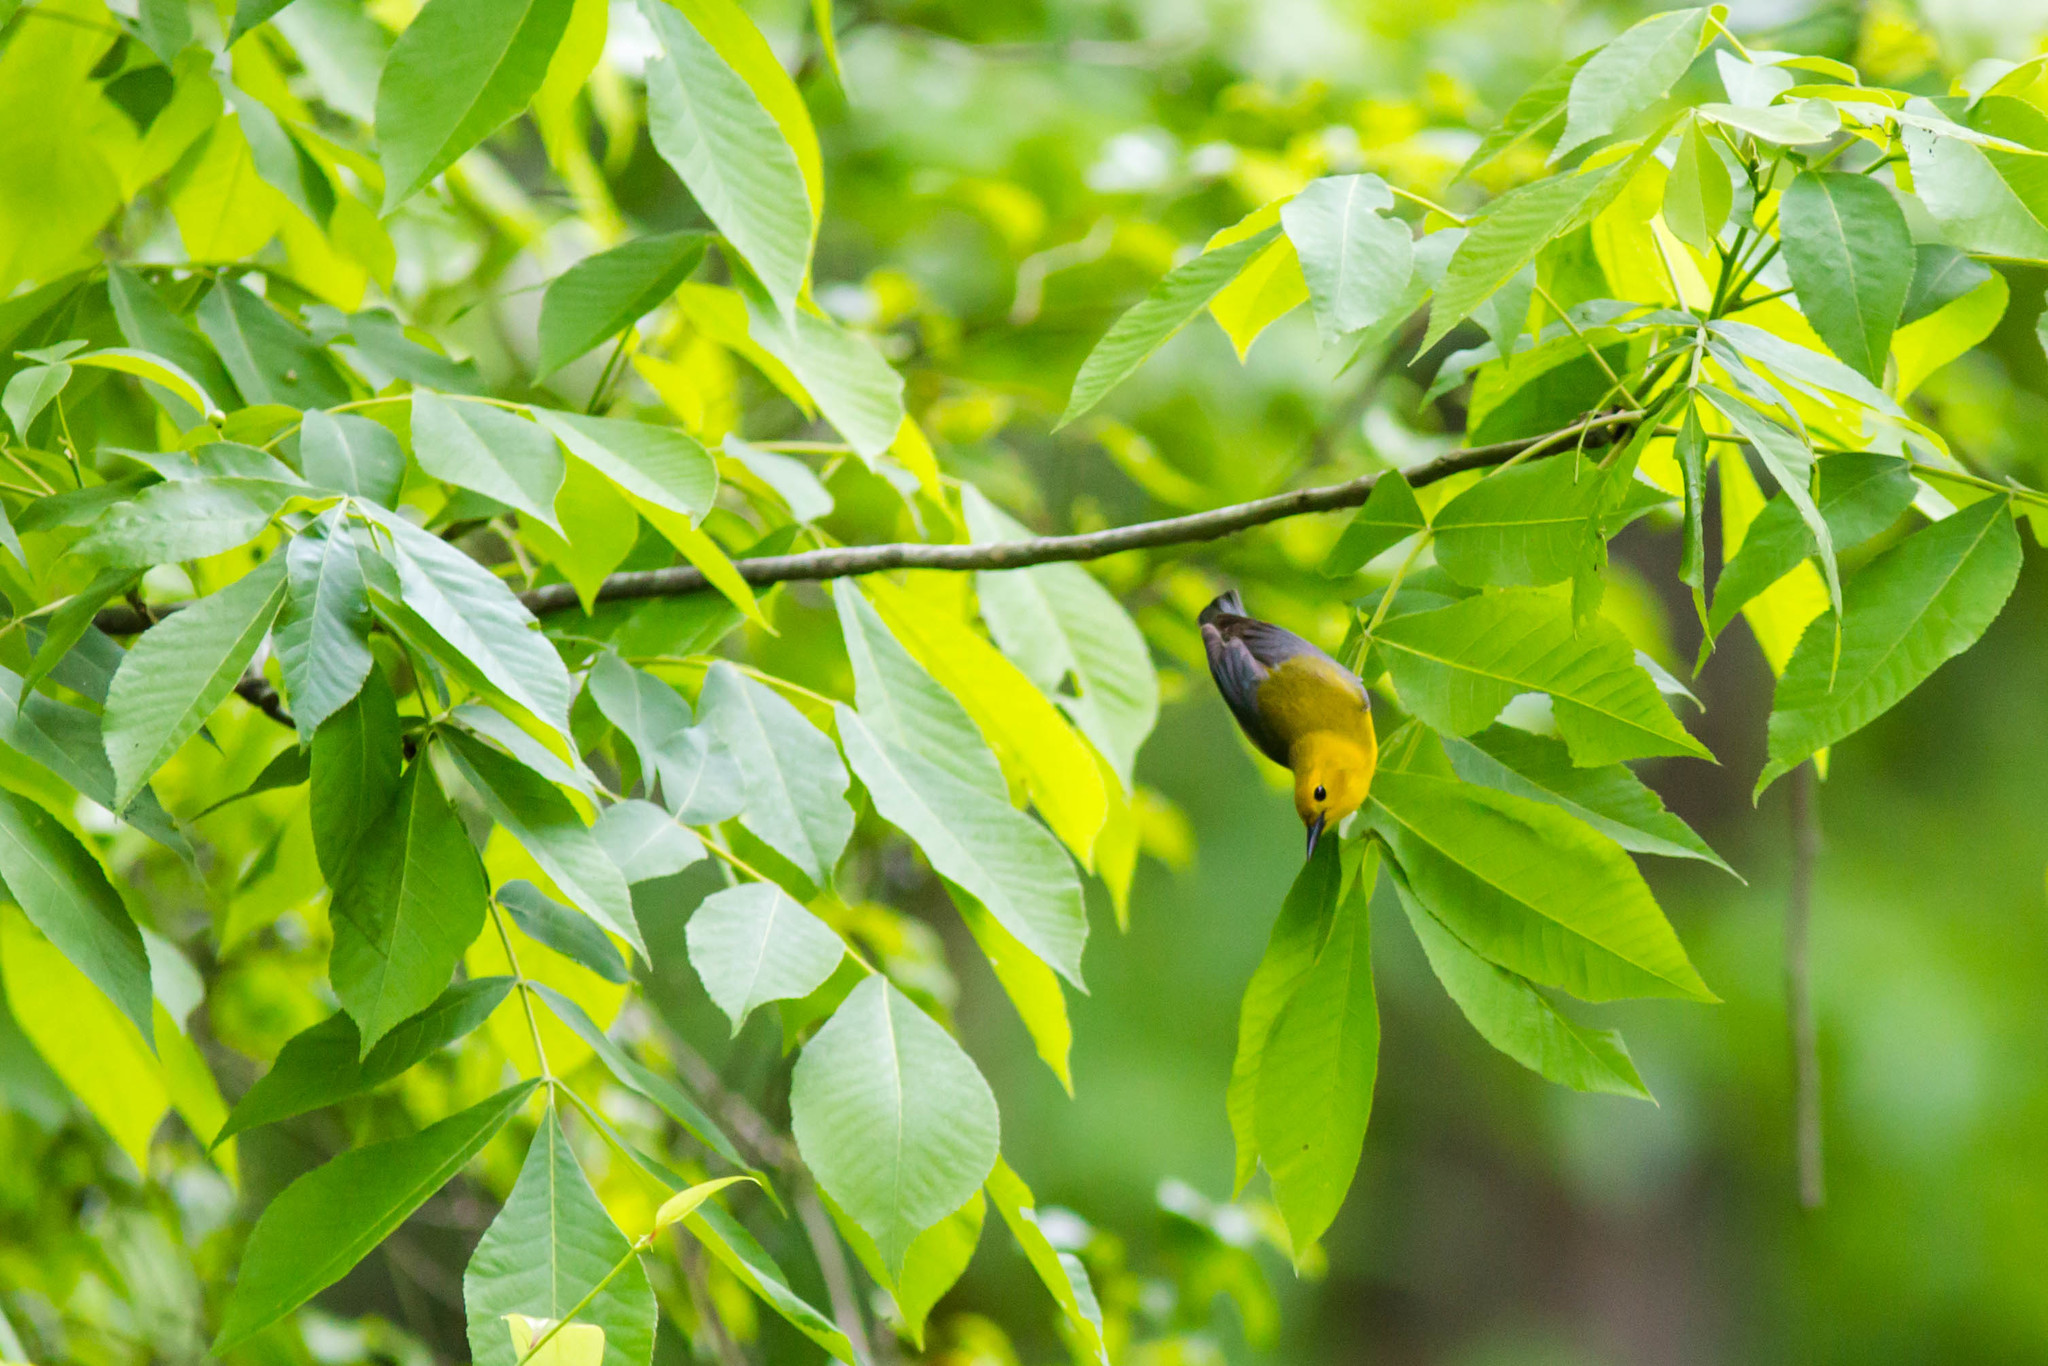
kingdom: Animalia
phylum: Chordata
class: Aves
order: Passeriformes
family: Parulidae
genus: Protonotaria
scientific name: Protonotaria citrea
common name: Prothonotary warbler
